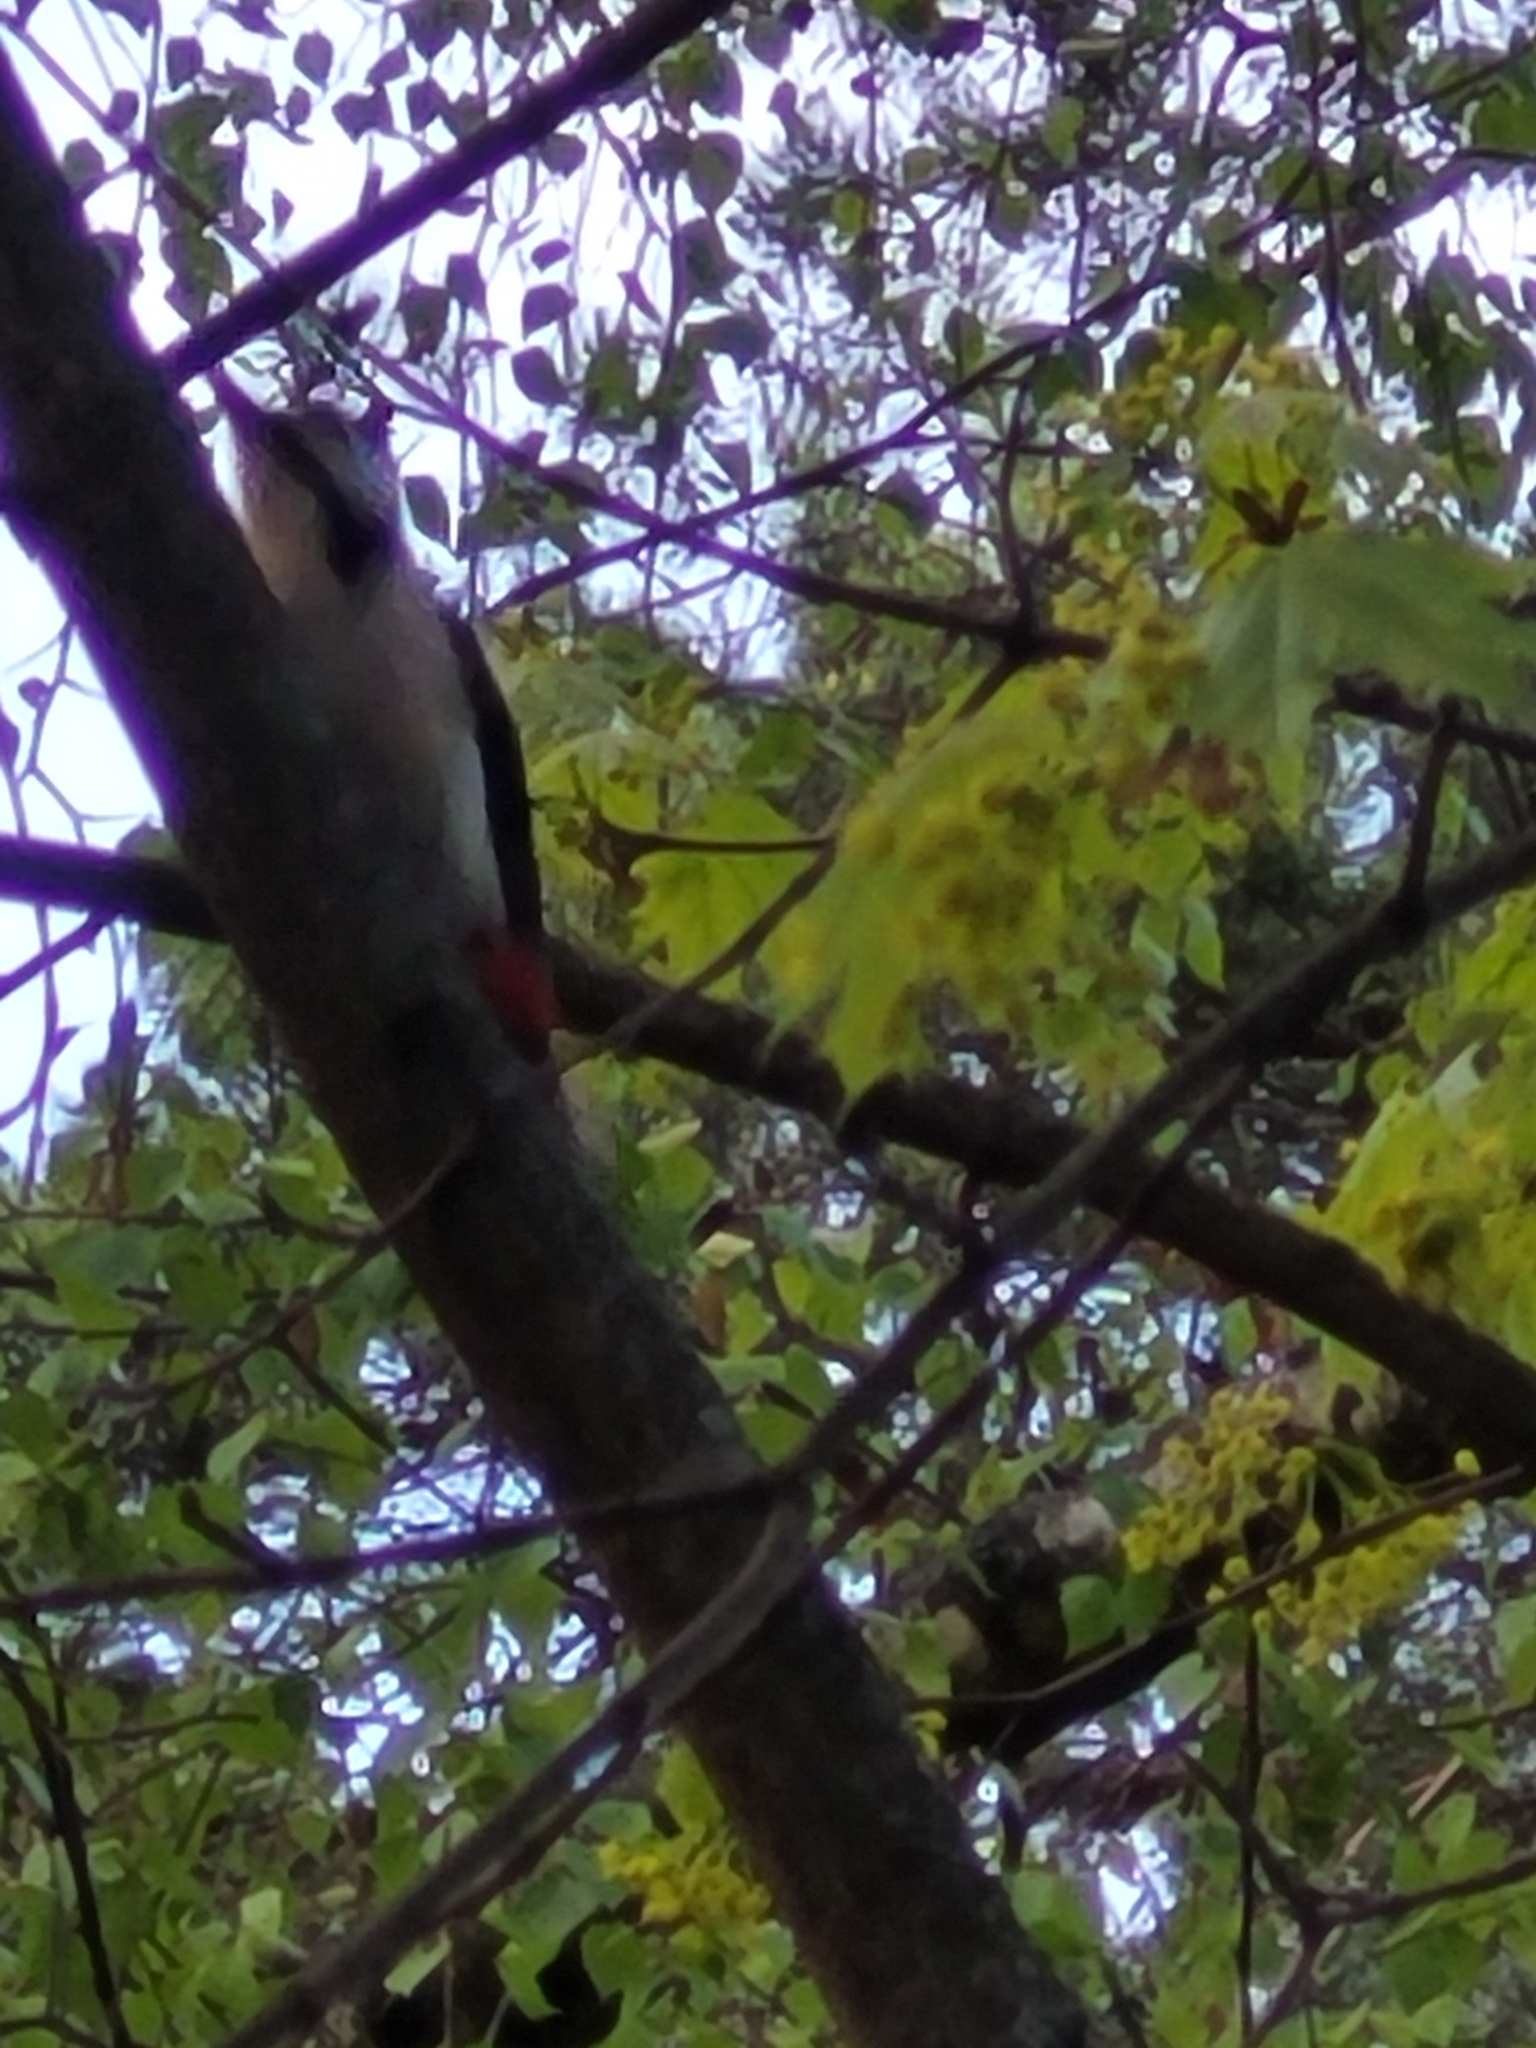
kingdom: Animalia
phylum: Chordata
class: Aves
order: Piciformes
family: Picidae
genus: Dendrocopos
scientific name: Dendrocopos major
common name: Great spotted woodpecker
